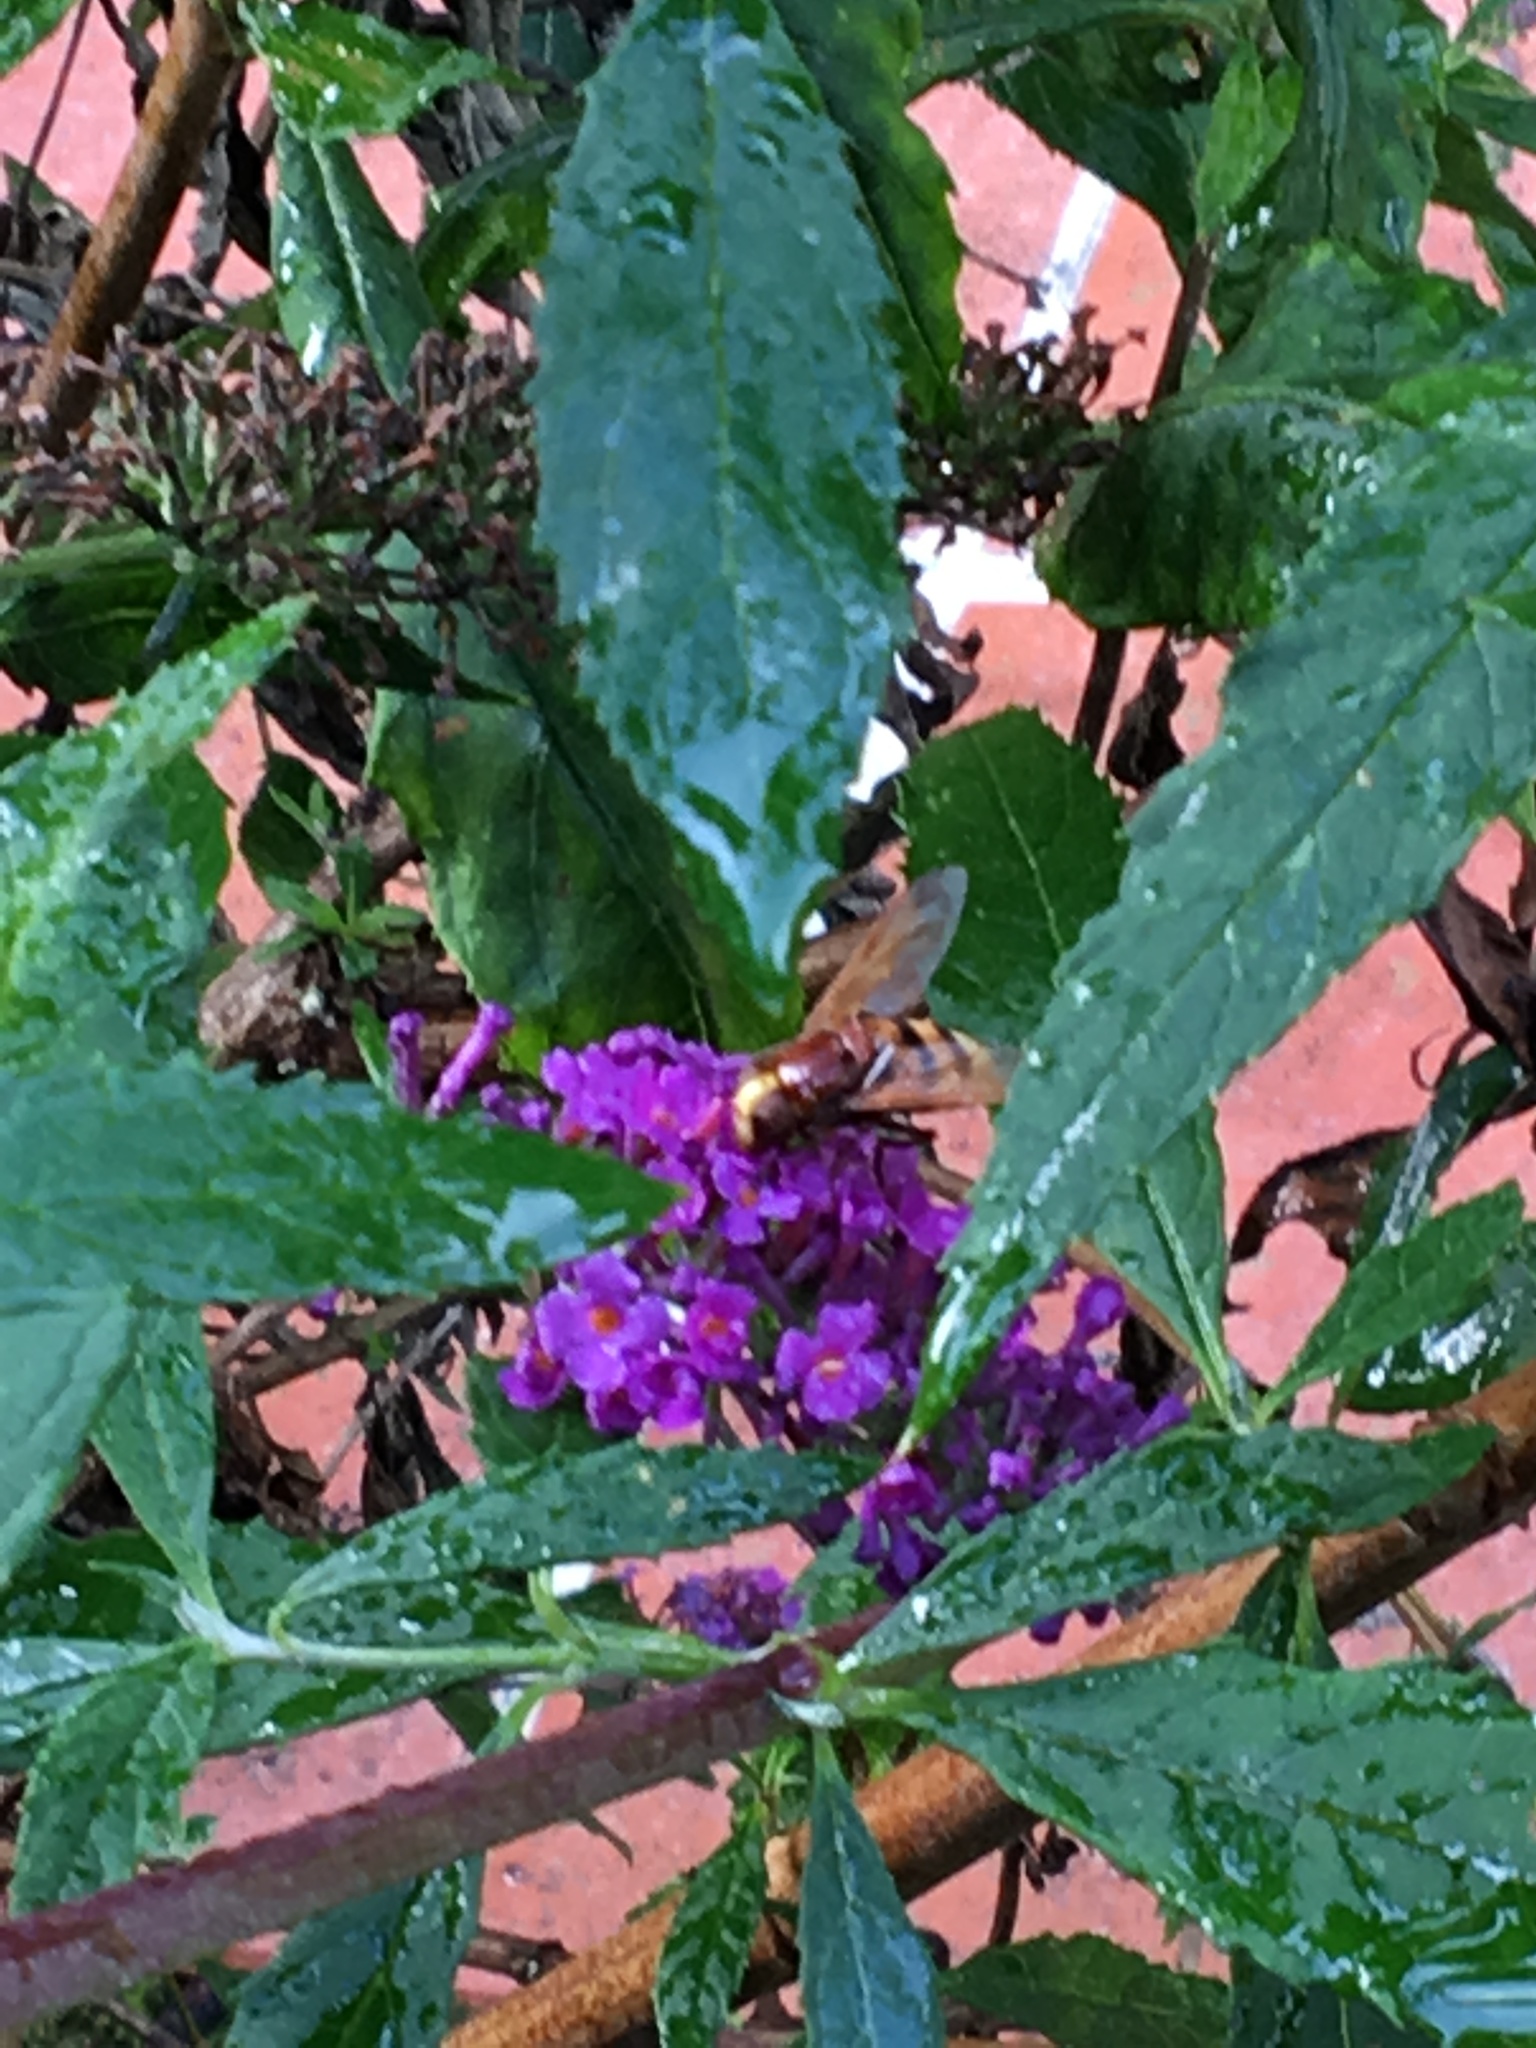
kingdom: Animalia
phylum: Arthropoda
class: Insecta
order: Diptera
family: Syrphidae
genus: Volucella
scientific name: Volucella zonaria
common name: Hornet hoverfly
